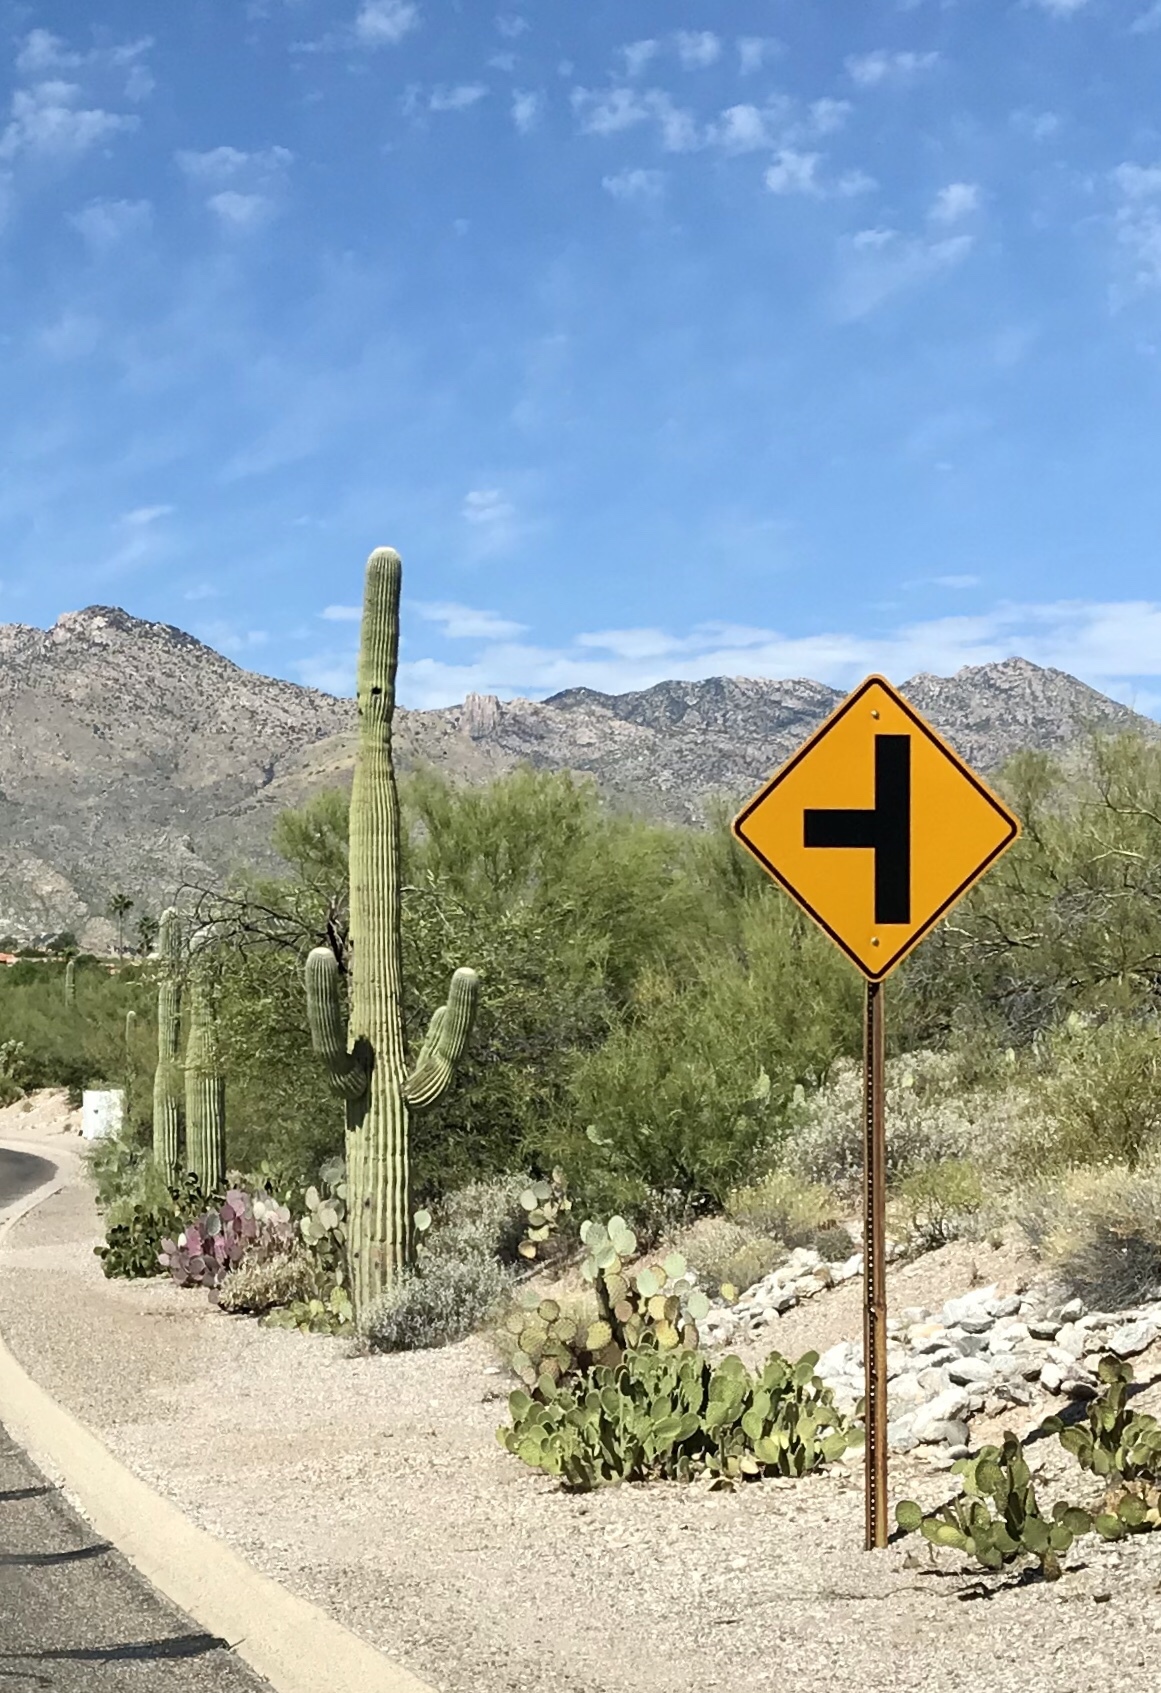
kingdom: Plantae
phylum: Tracheophyta
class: Magnoliopsida
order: Caryophyllales
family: Cactaceae
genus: Carnegiea
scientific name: Carnegiea gigantea
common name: Saguaro
